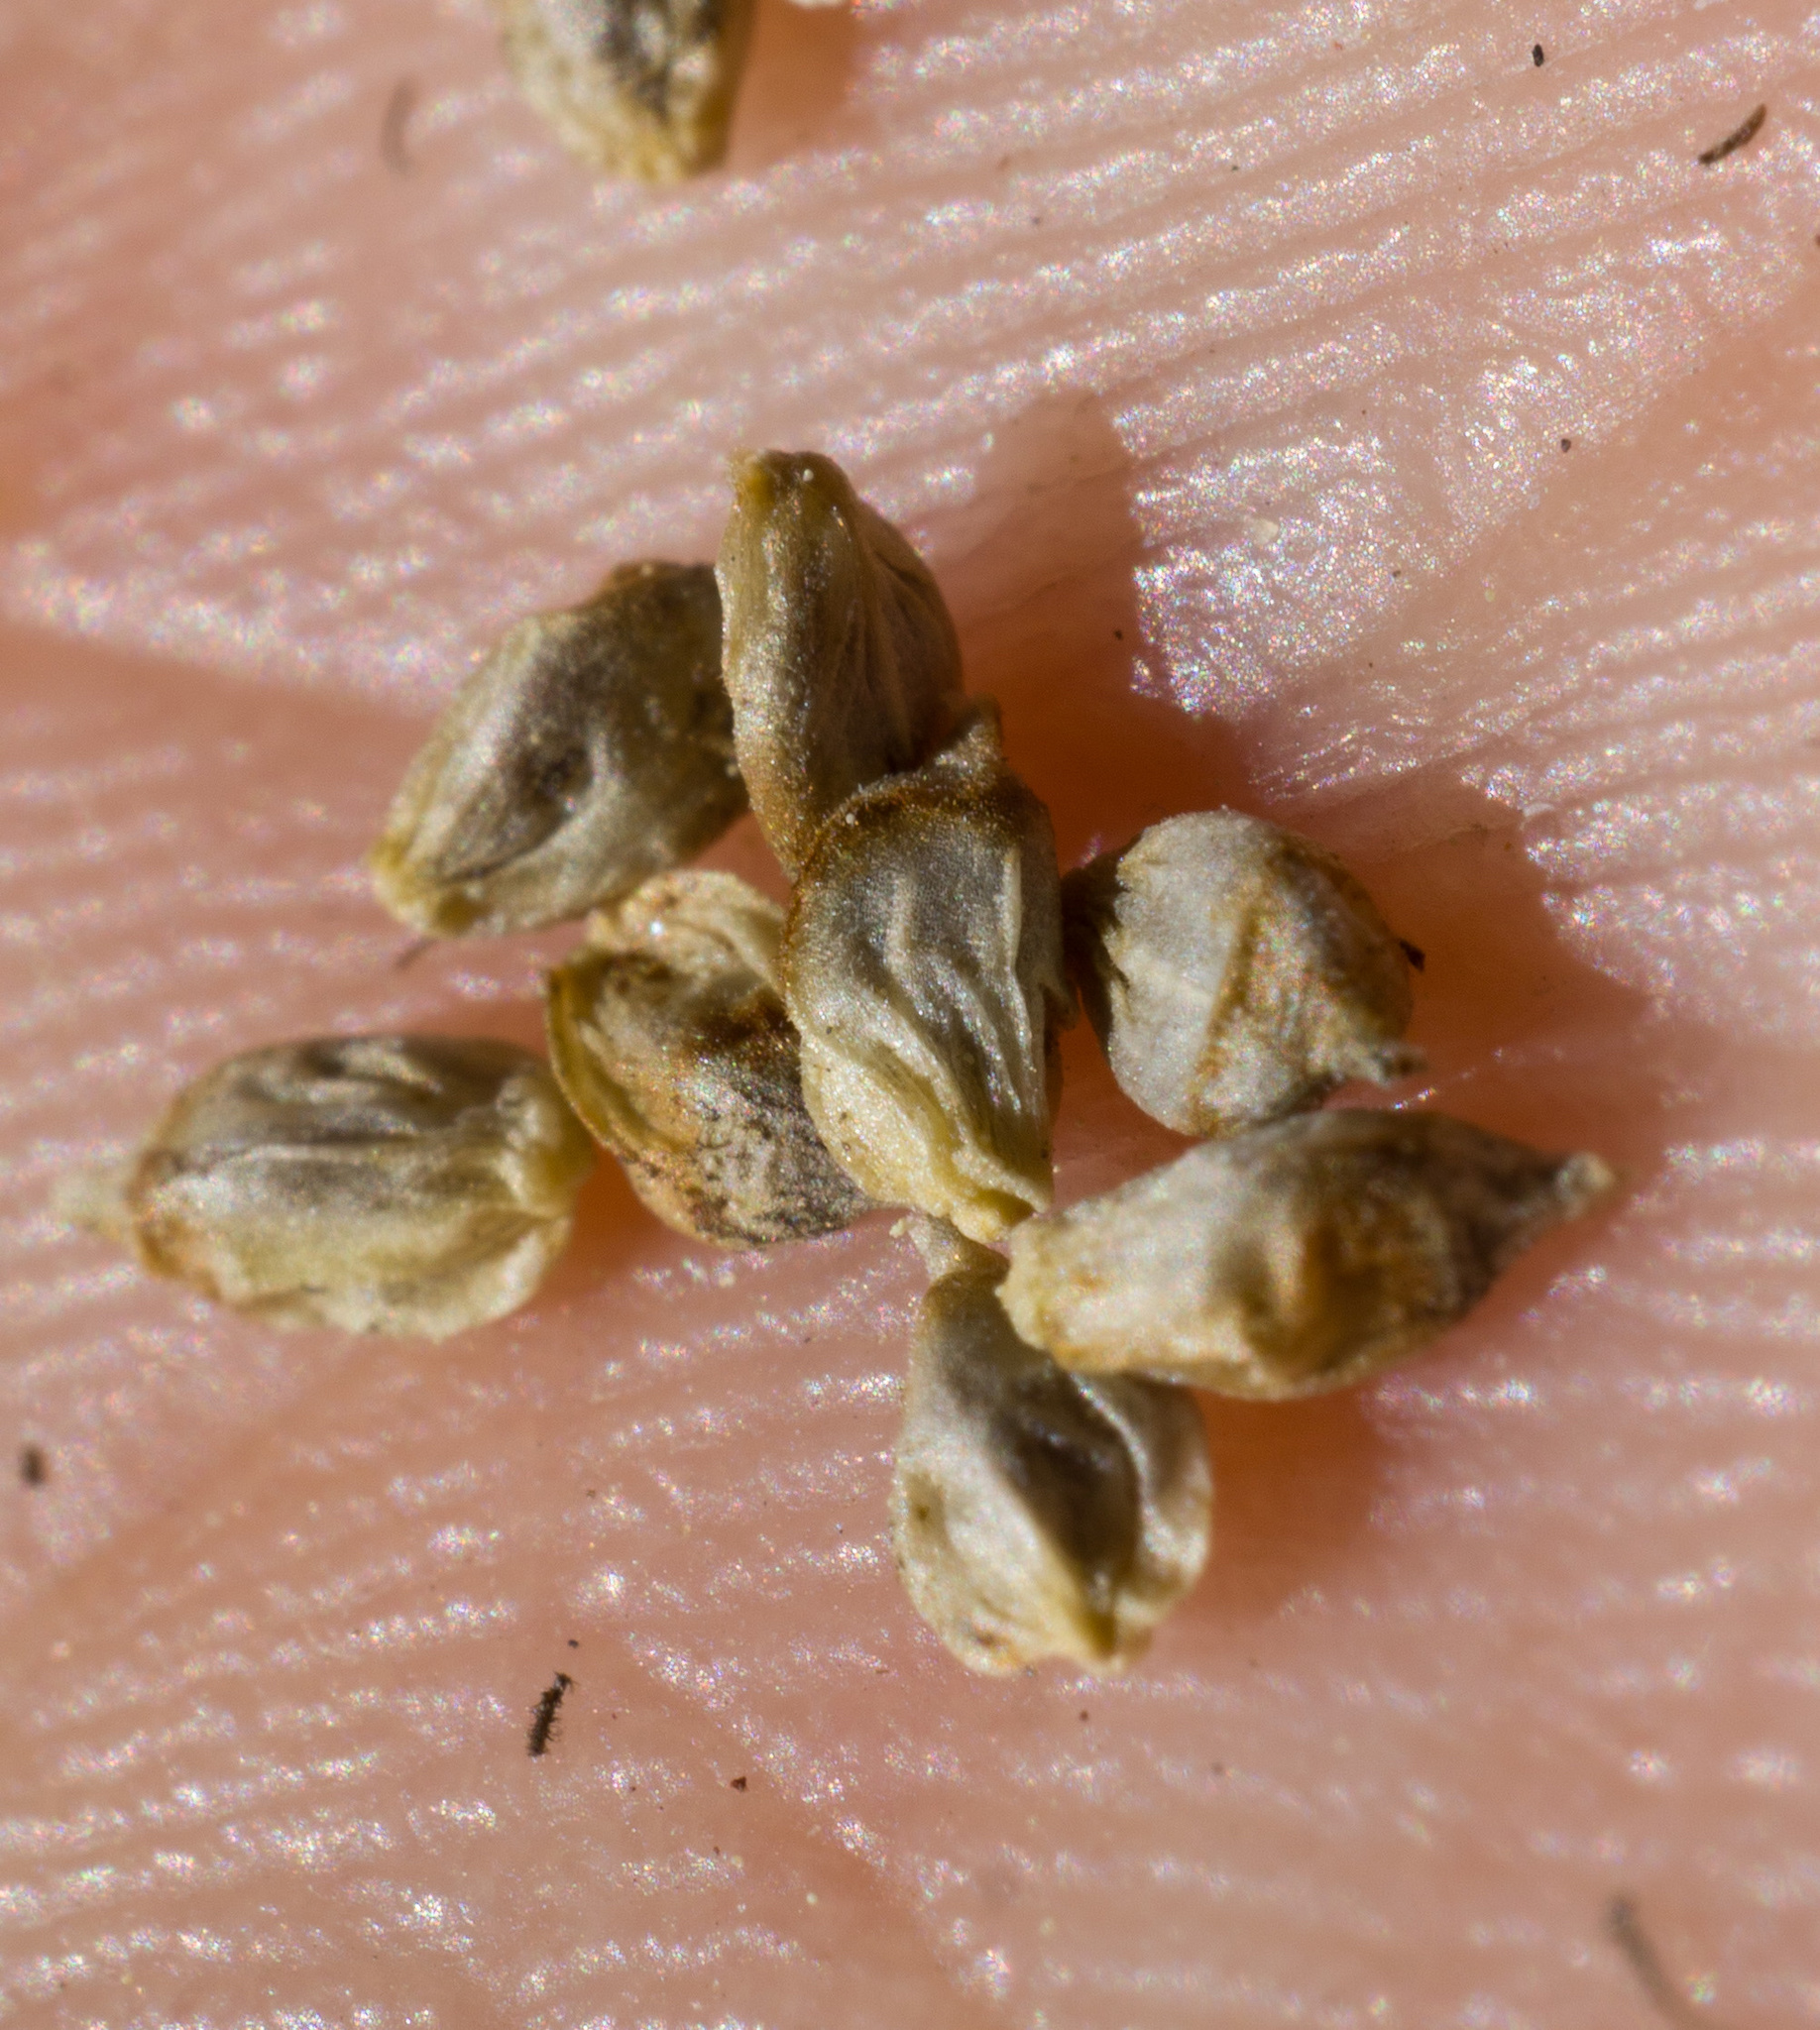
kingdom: Plantae
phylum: Tracheophyta
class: Liliopsida
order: Poales
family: Cyperaceae
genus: Carex
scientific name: Carex filifolia
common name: Threadleaf sedge
